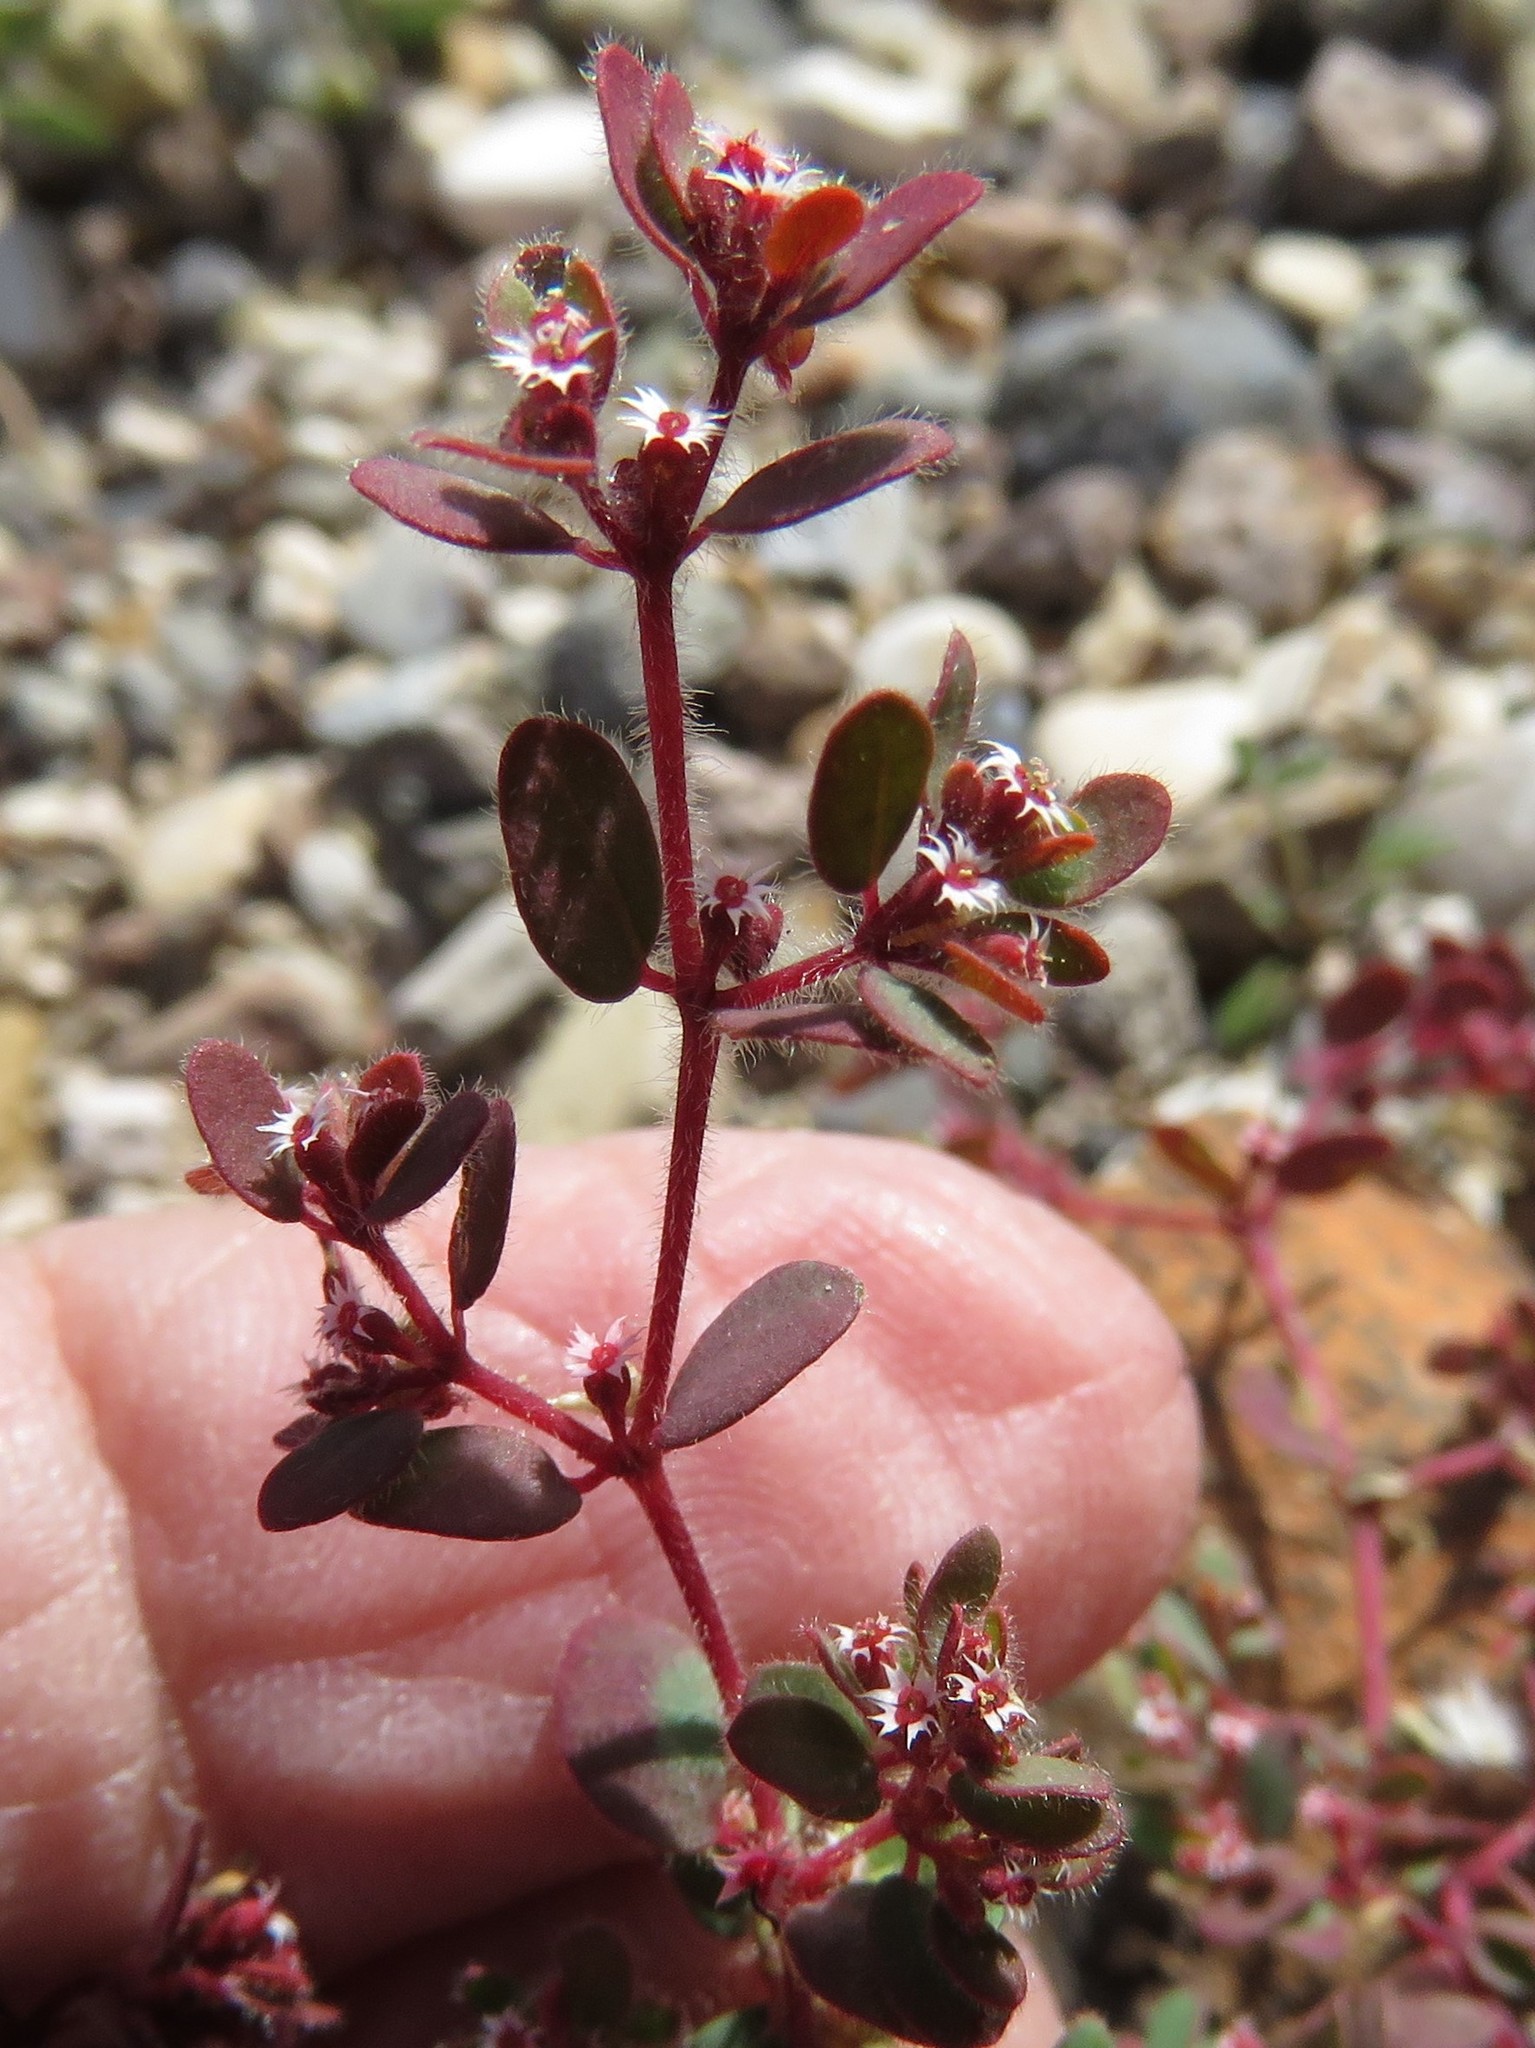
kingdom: Plantae
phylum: Tracheophyta
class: Magnoliopsida
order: Malpighiales
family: Euphorbiaceae
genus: Euphorbia
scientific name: Euphorbia setiloba
